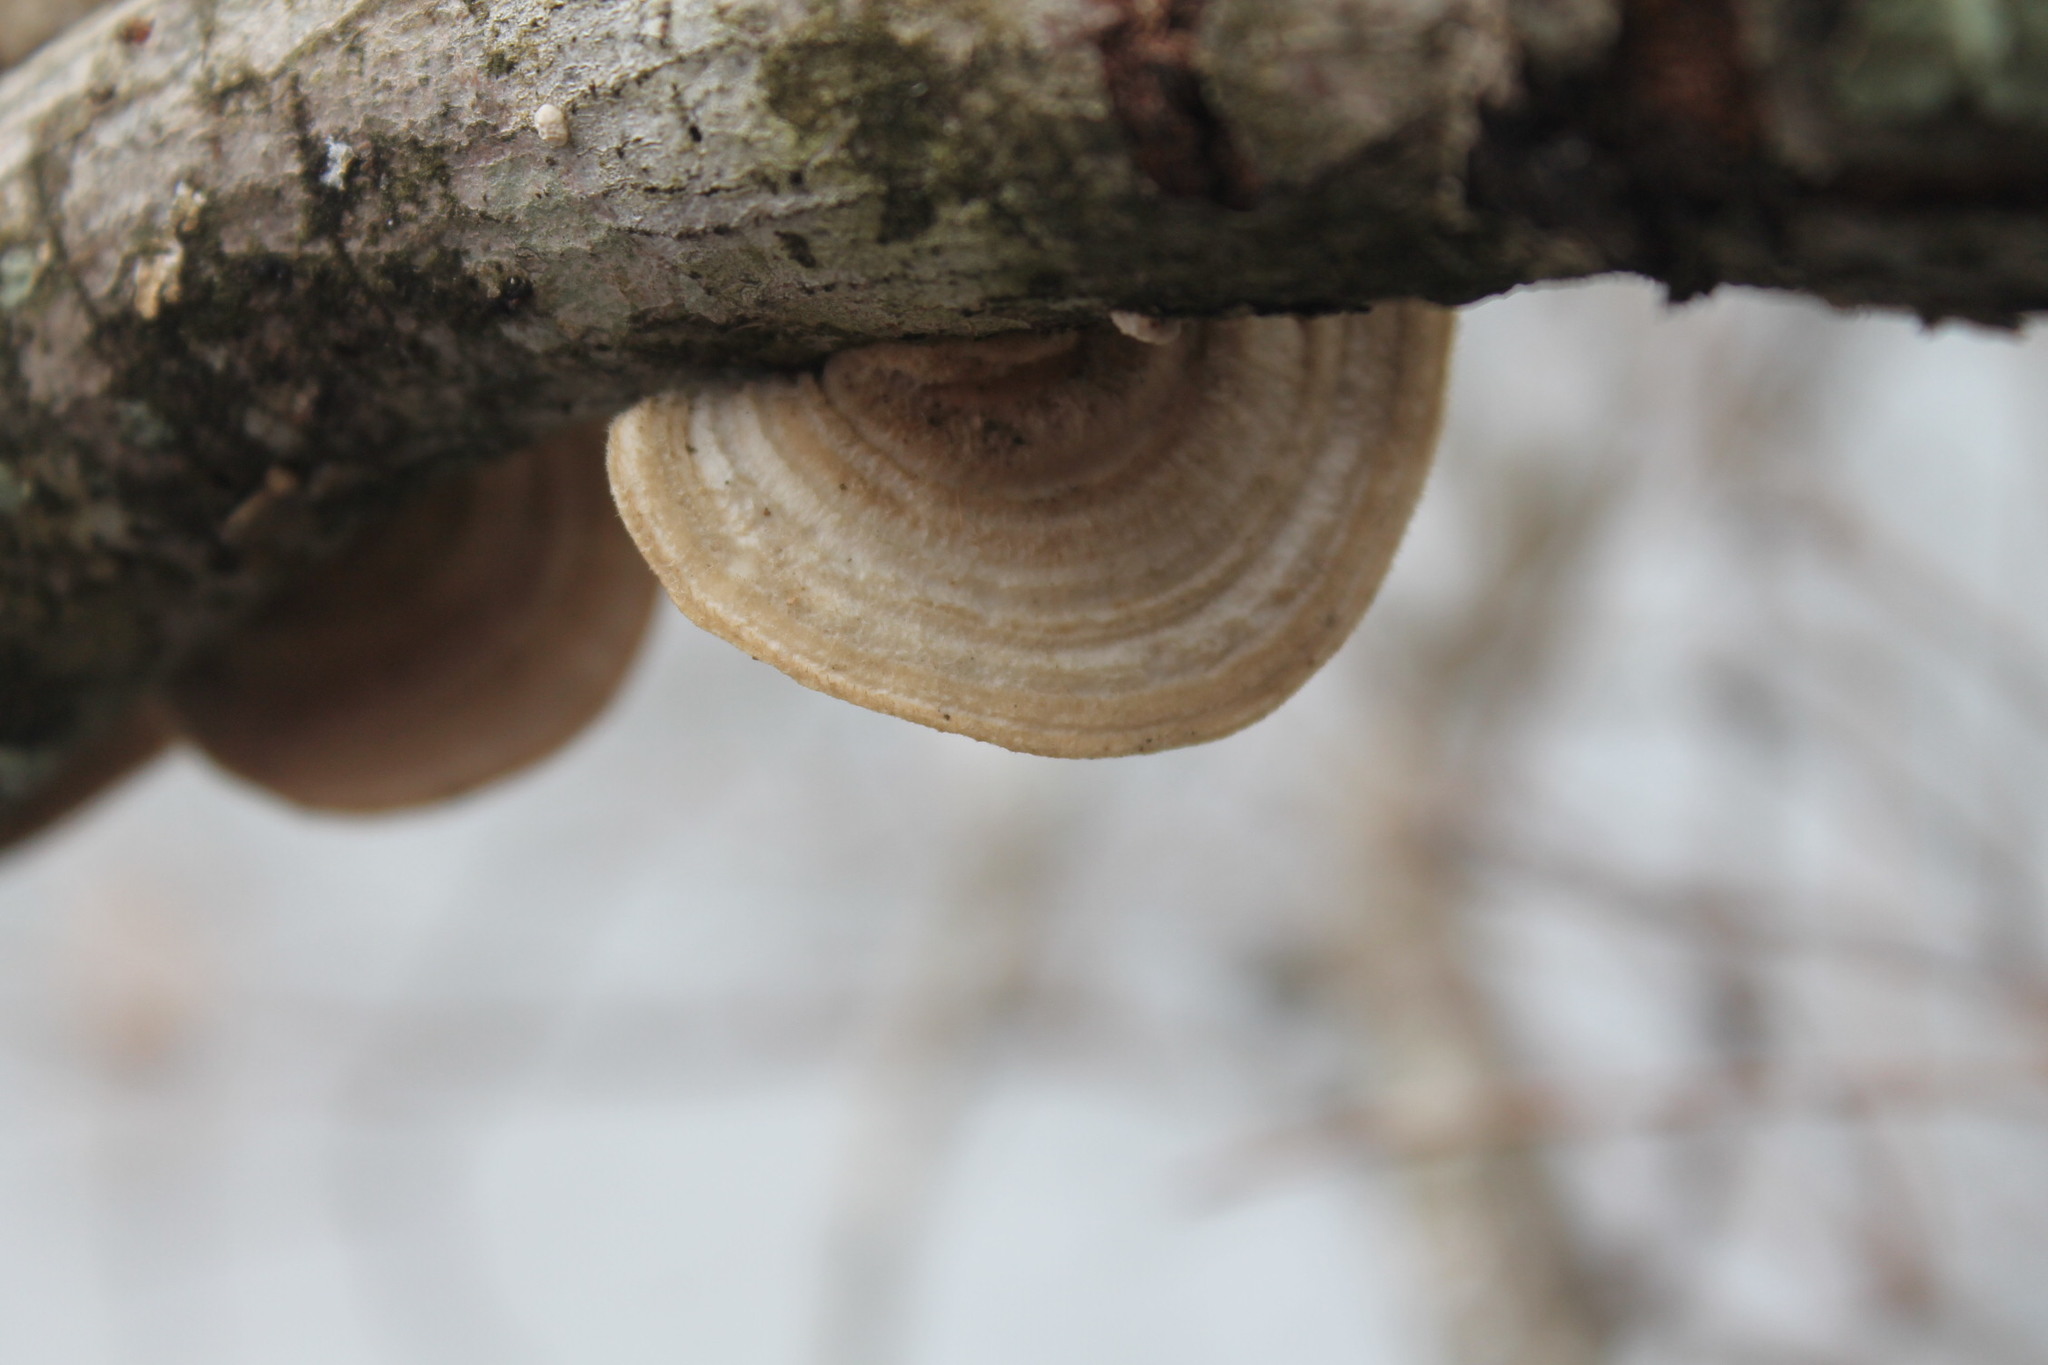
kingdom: Fungi
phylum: Basidiomycota
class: Agaricomycetes
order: Polyporales
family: Polyporaceae
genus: Trametes
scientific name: Trametes hirsuta
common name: Hairy bracket
